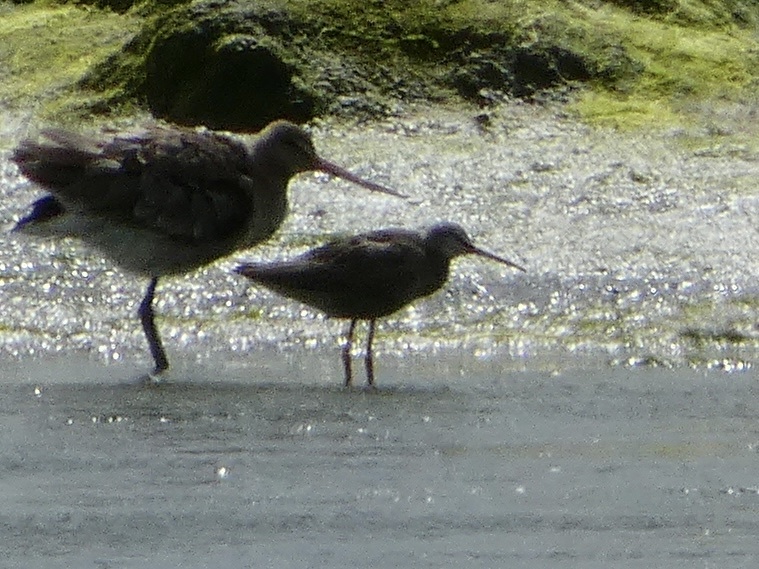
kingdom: Animalia
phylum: Chordata
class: Aves
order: Charadriiformes
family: Scolopacidae
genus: Tringa
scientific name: Tringa erythropus
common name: Spotted redshank
